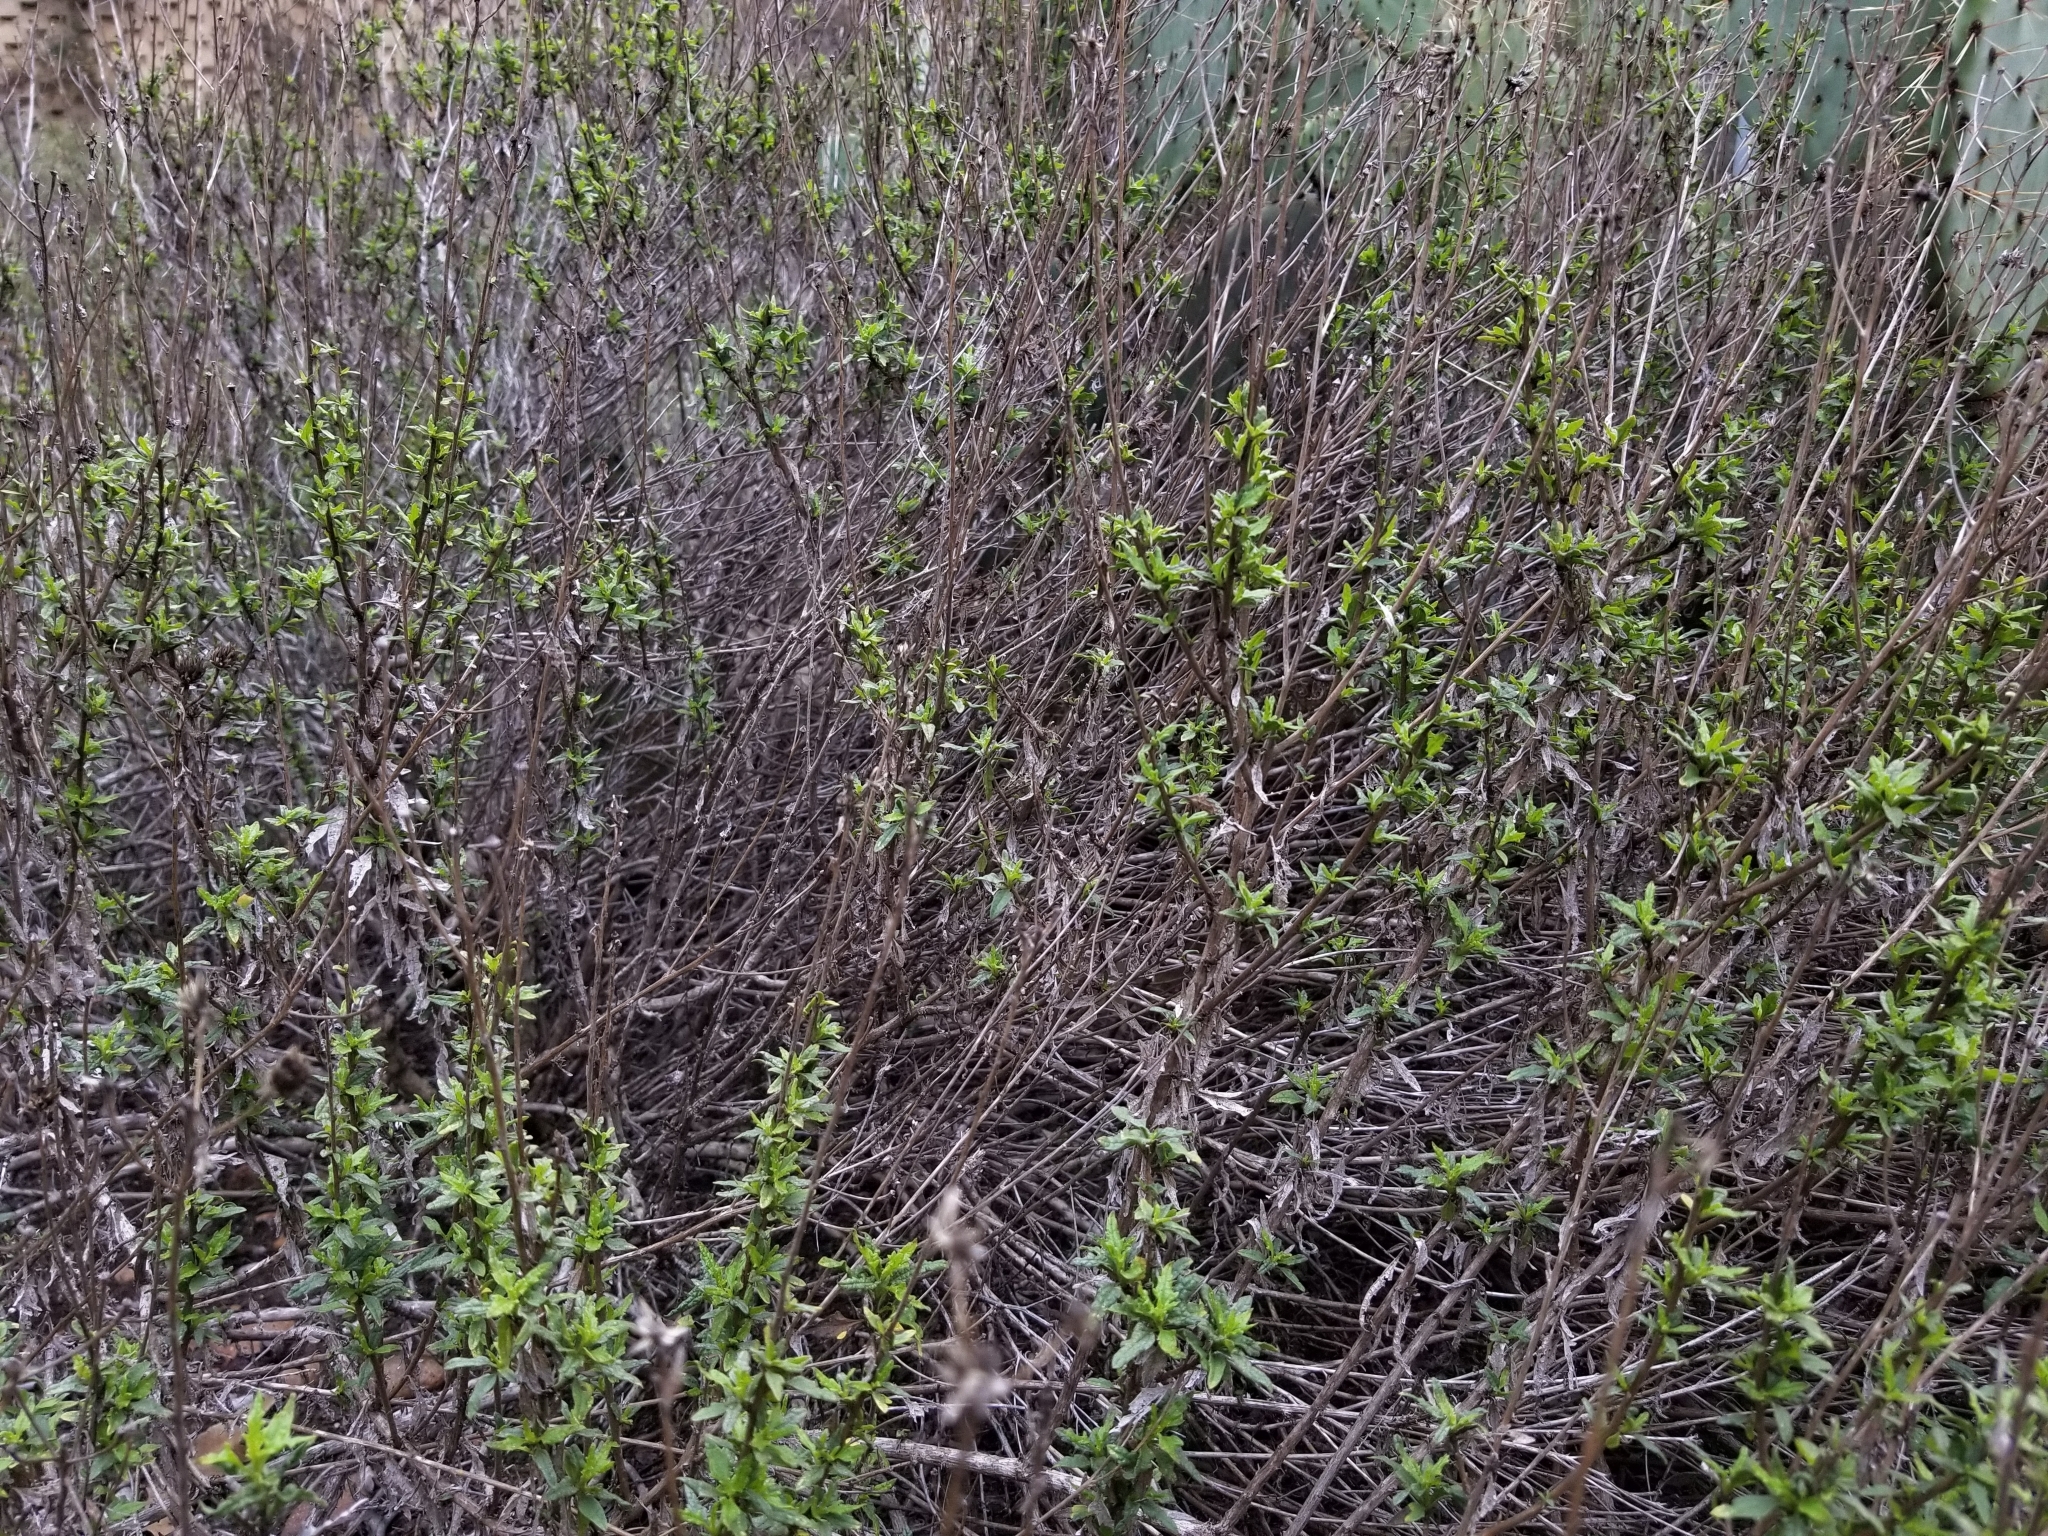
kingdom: Plantae
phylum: Tracheophyta
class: Magnoliopsida
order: Asterales
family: Asteraceae
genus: Bahiopsis
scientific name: Bahiopsis laciniata
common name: San diego county viguiera
